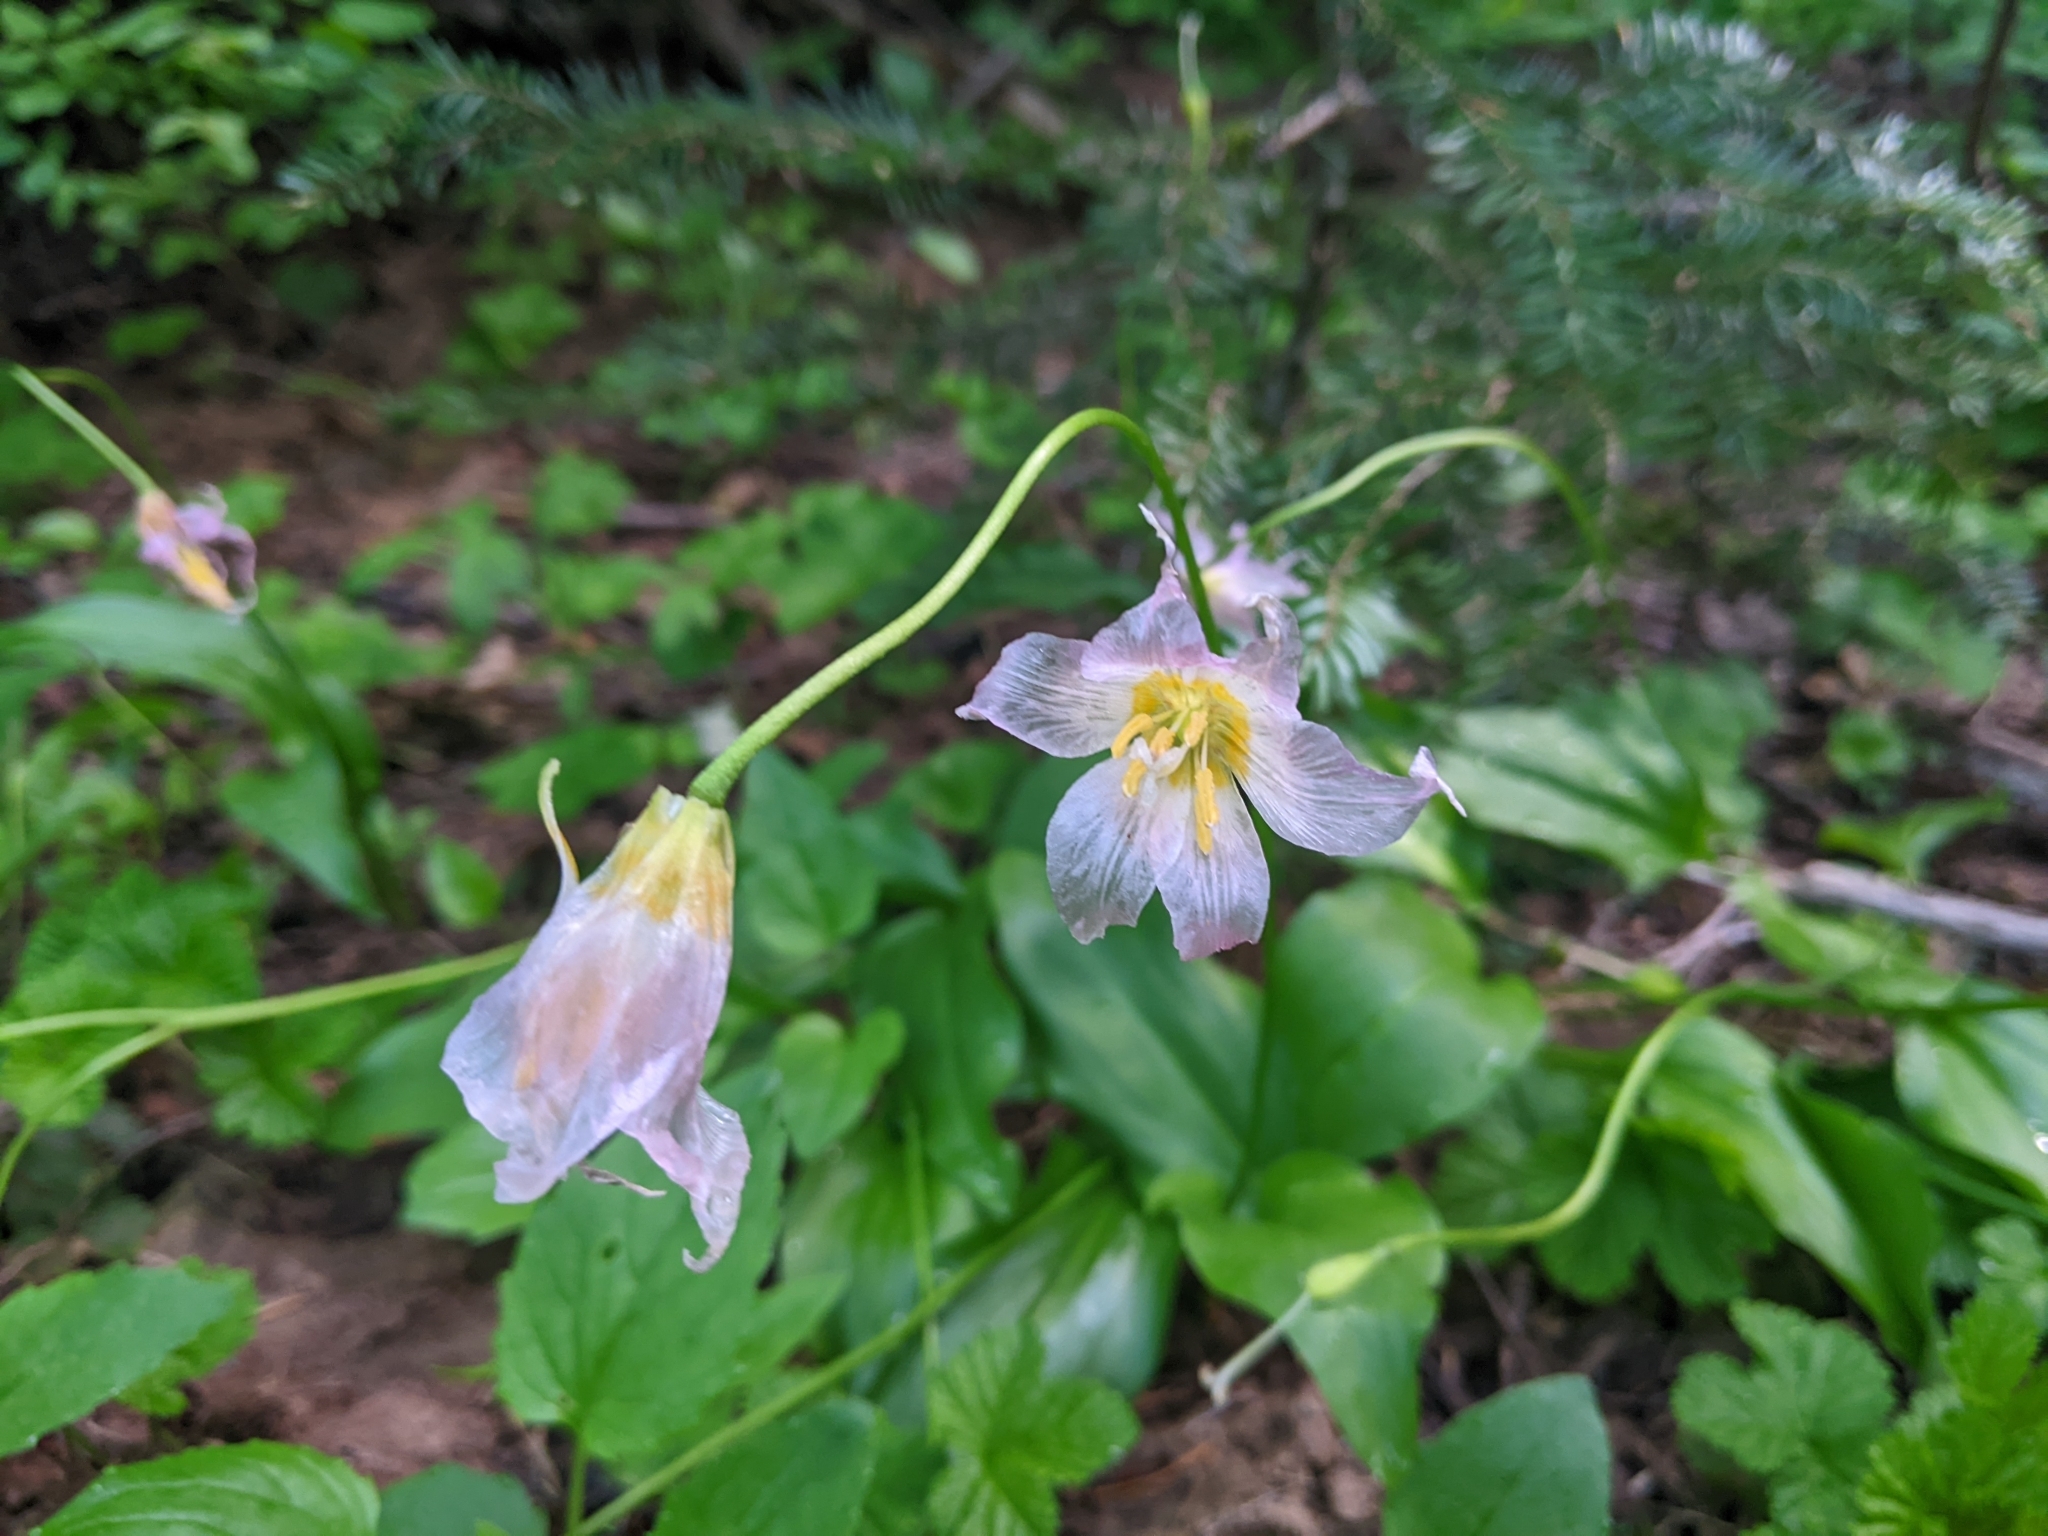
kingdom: Plantae
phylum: Tracheophyta
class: Liliopsida
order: Liliales
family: Liliaceae
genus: Erythronium
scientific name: Erythronium montanum
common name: Avalanche lily
